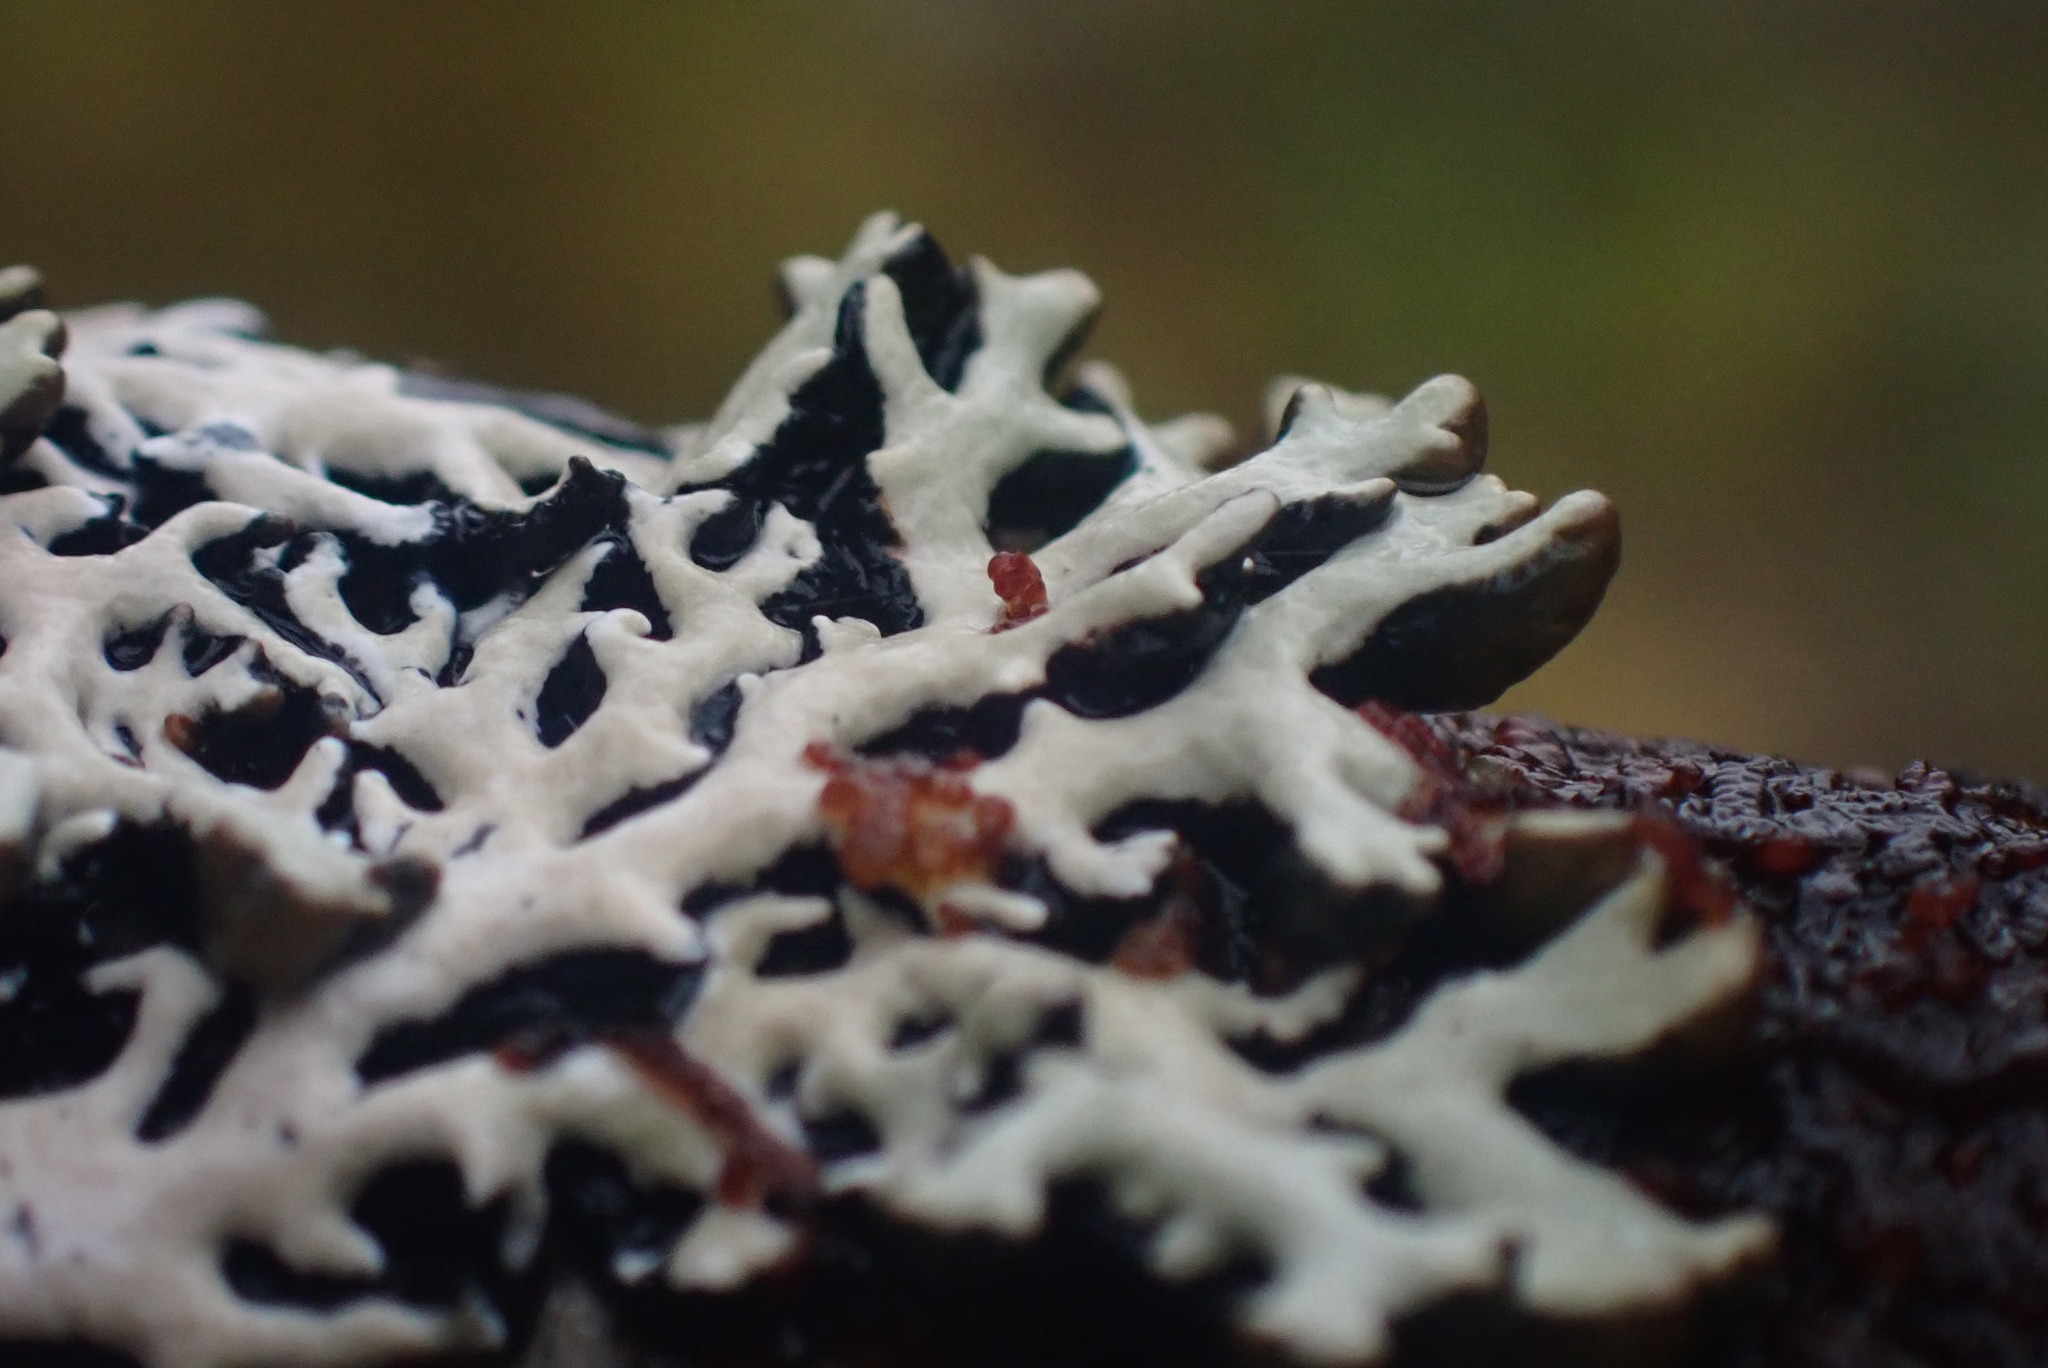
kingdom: Fungi
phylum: Ascomycota
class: Lecanoromycetes
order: Lecanorales
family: Parmeliaceae
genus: Hypogymnia
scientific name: Hypogymnia physodes
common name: Dark crottle
